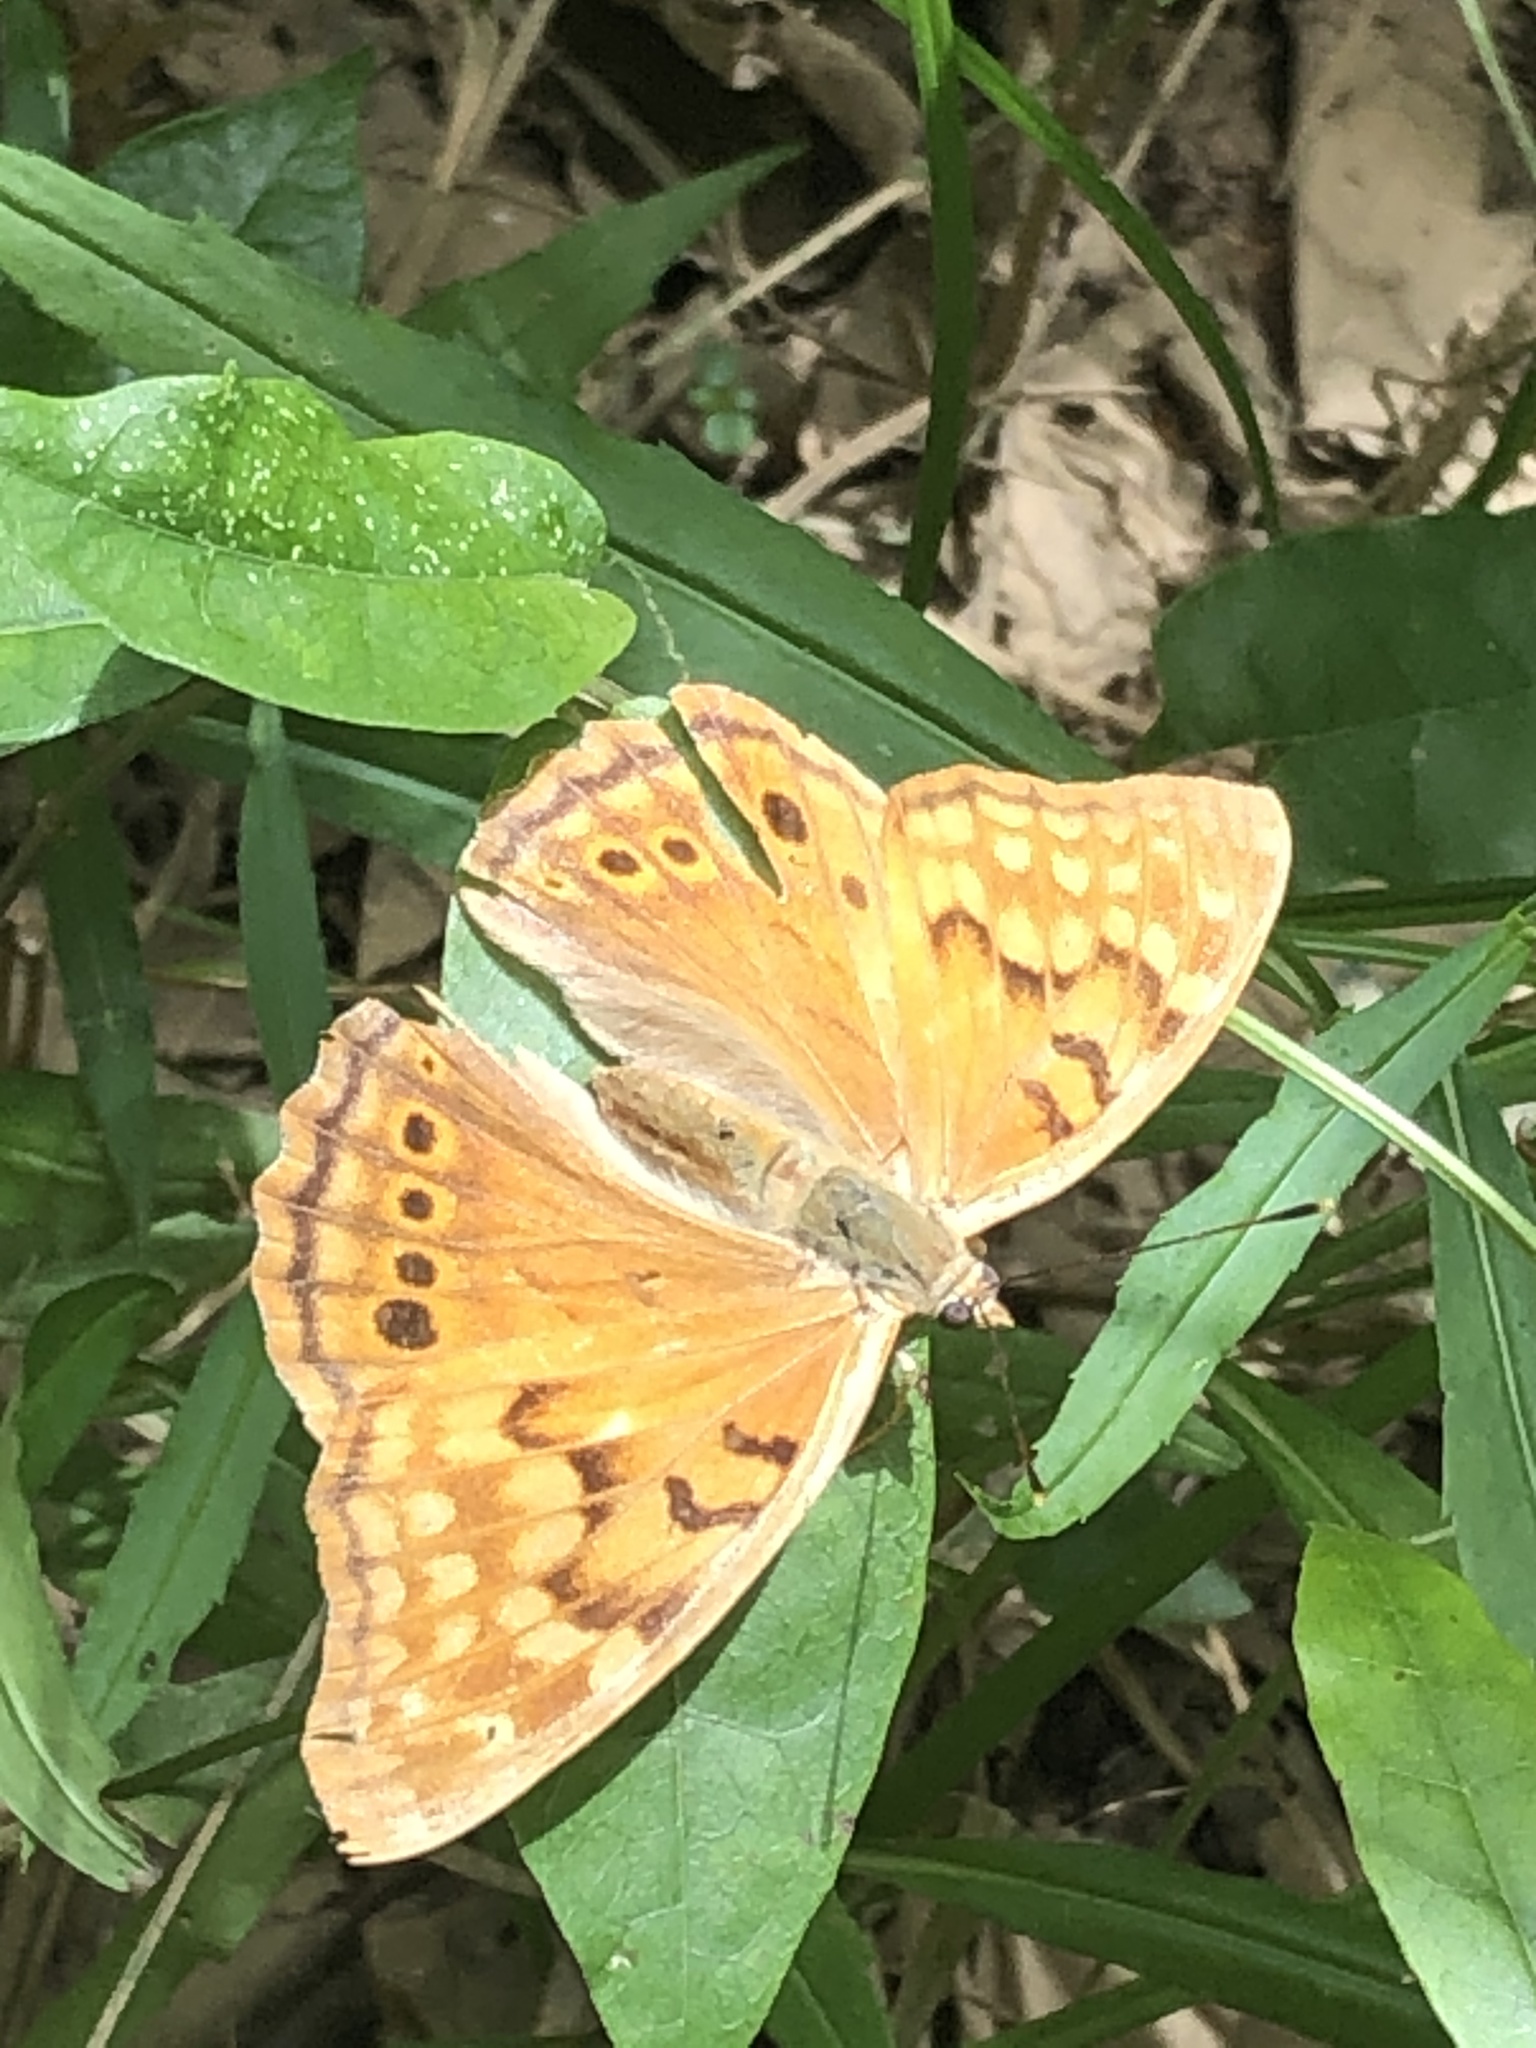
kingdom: Animalia
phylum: Arthropoda
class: Insecta
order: Lepidoptera
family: Nymphalidae
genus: Asterocampa
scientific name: Asterocampa clyton
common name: Tawny emperor
